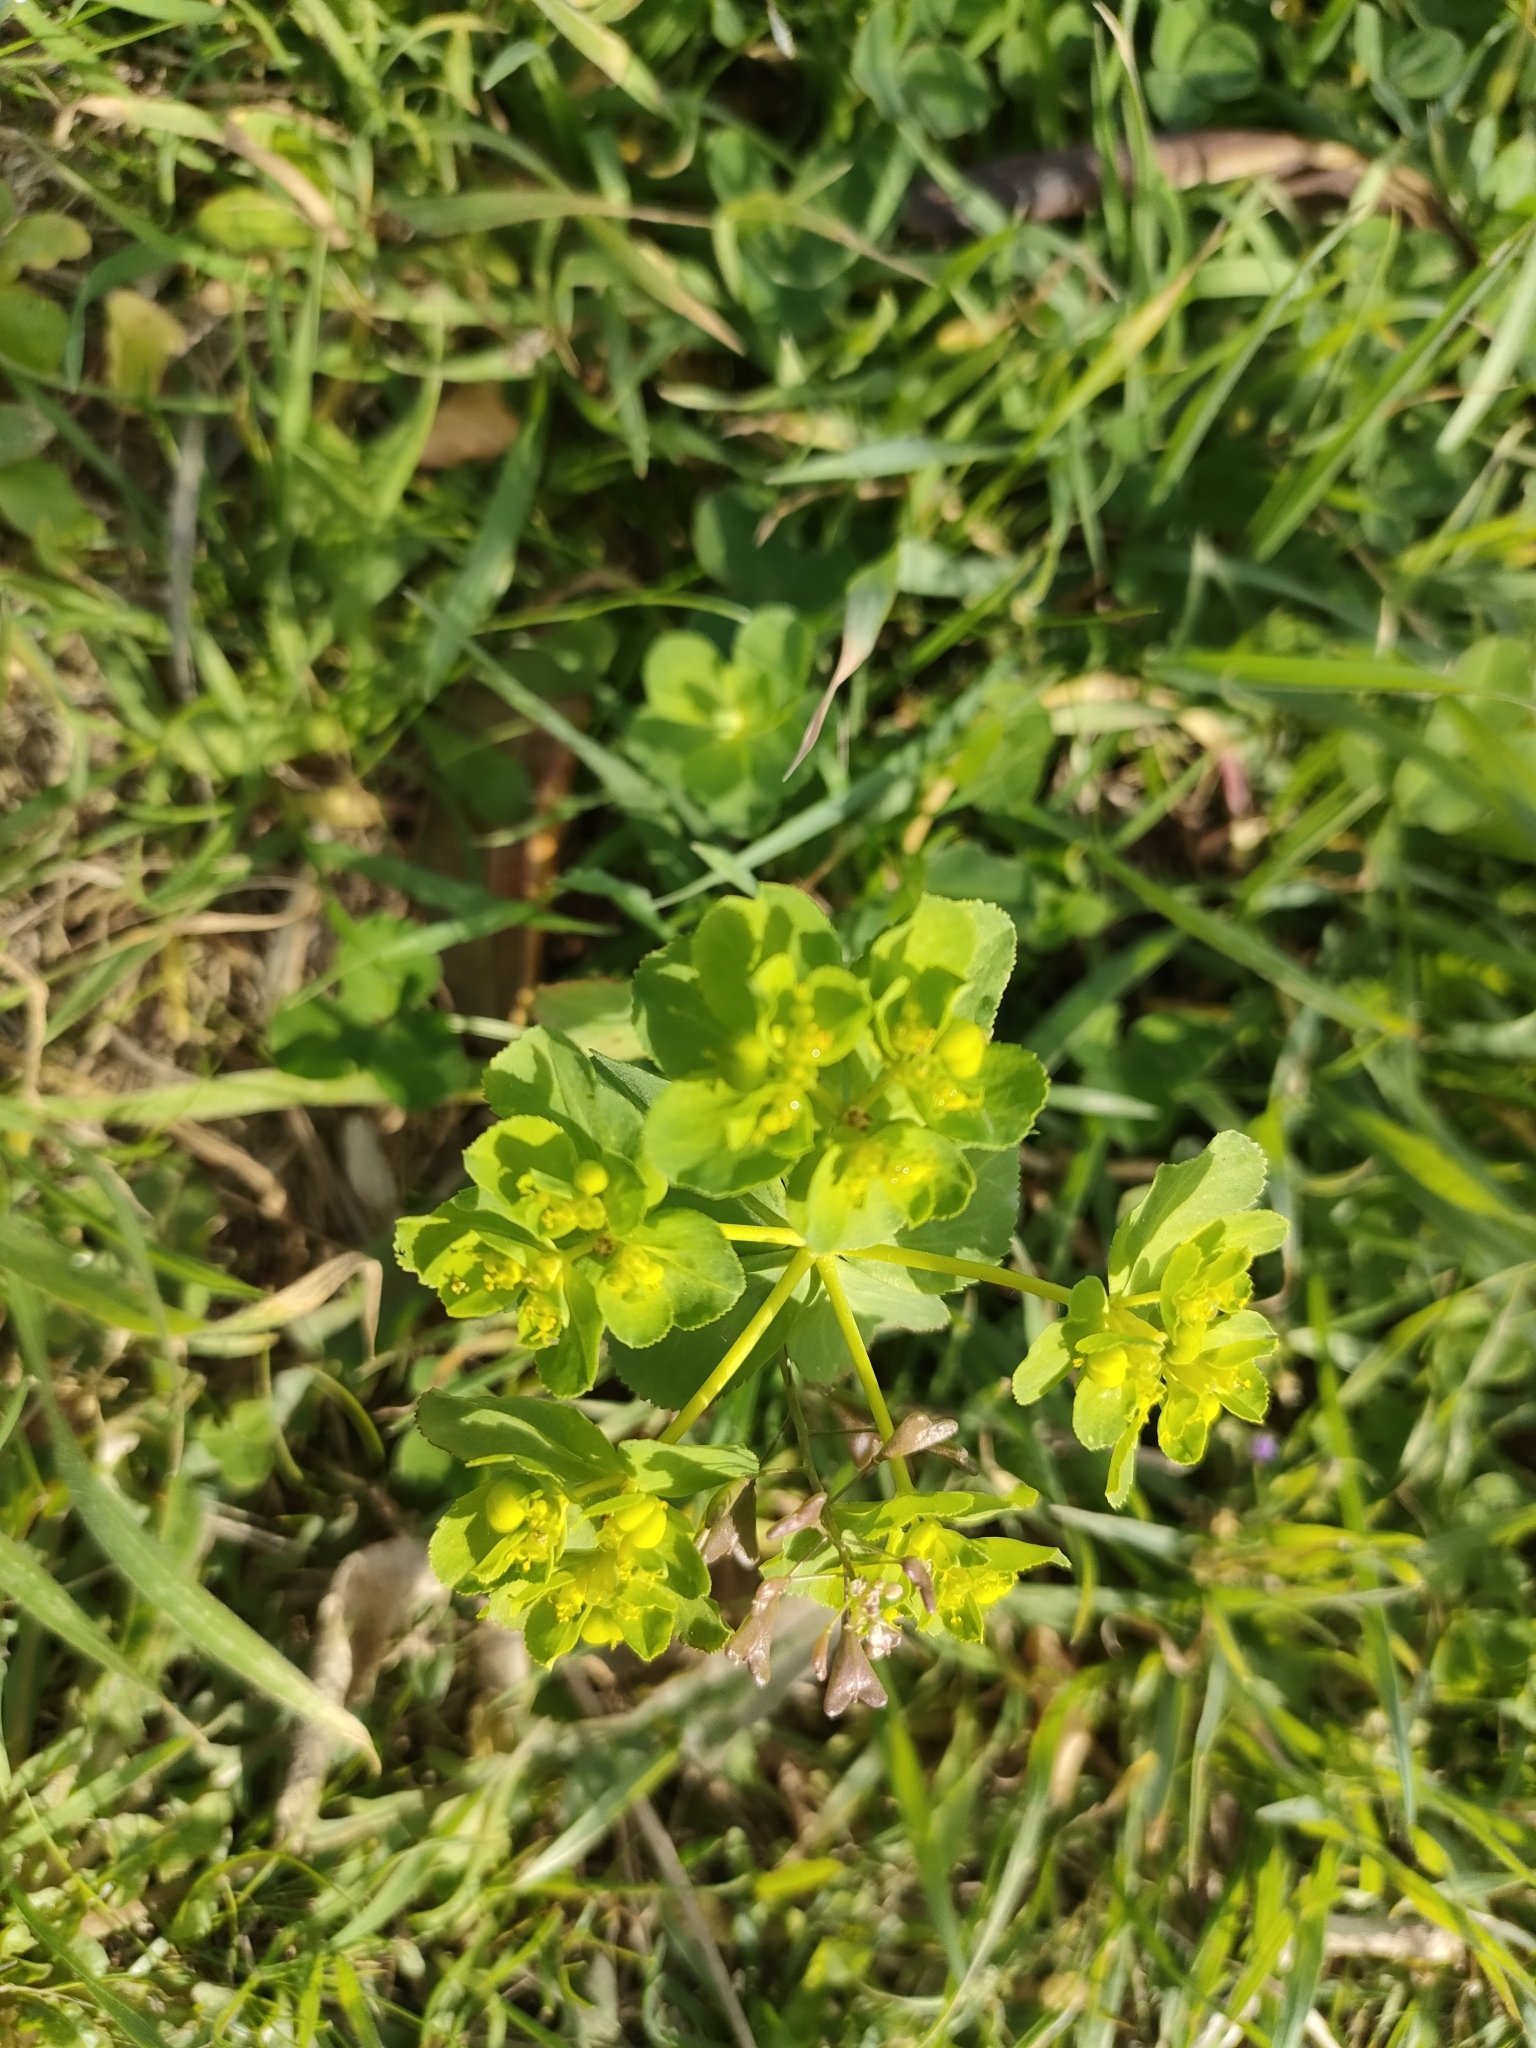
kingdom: Plantae
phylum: Tracheophyta
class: Magnoliopsida
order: Malpighiales
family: Euphorbiaceae
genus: Euphorbia
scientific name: Euphorbia helioscopia
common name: Sun spurge
